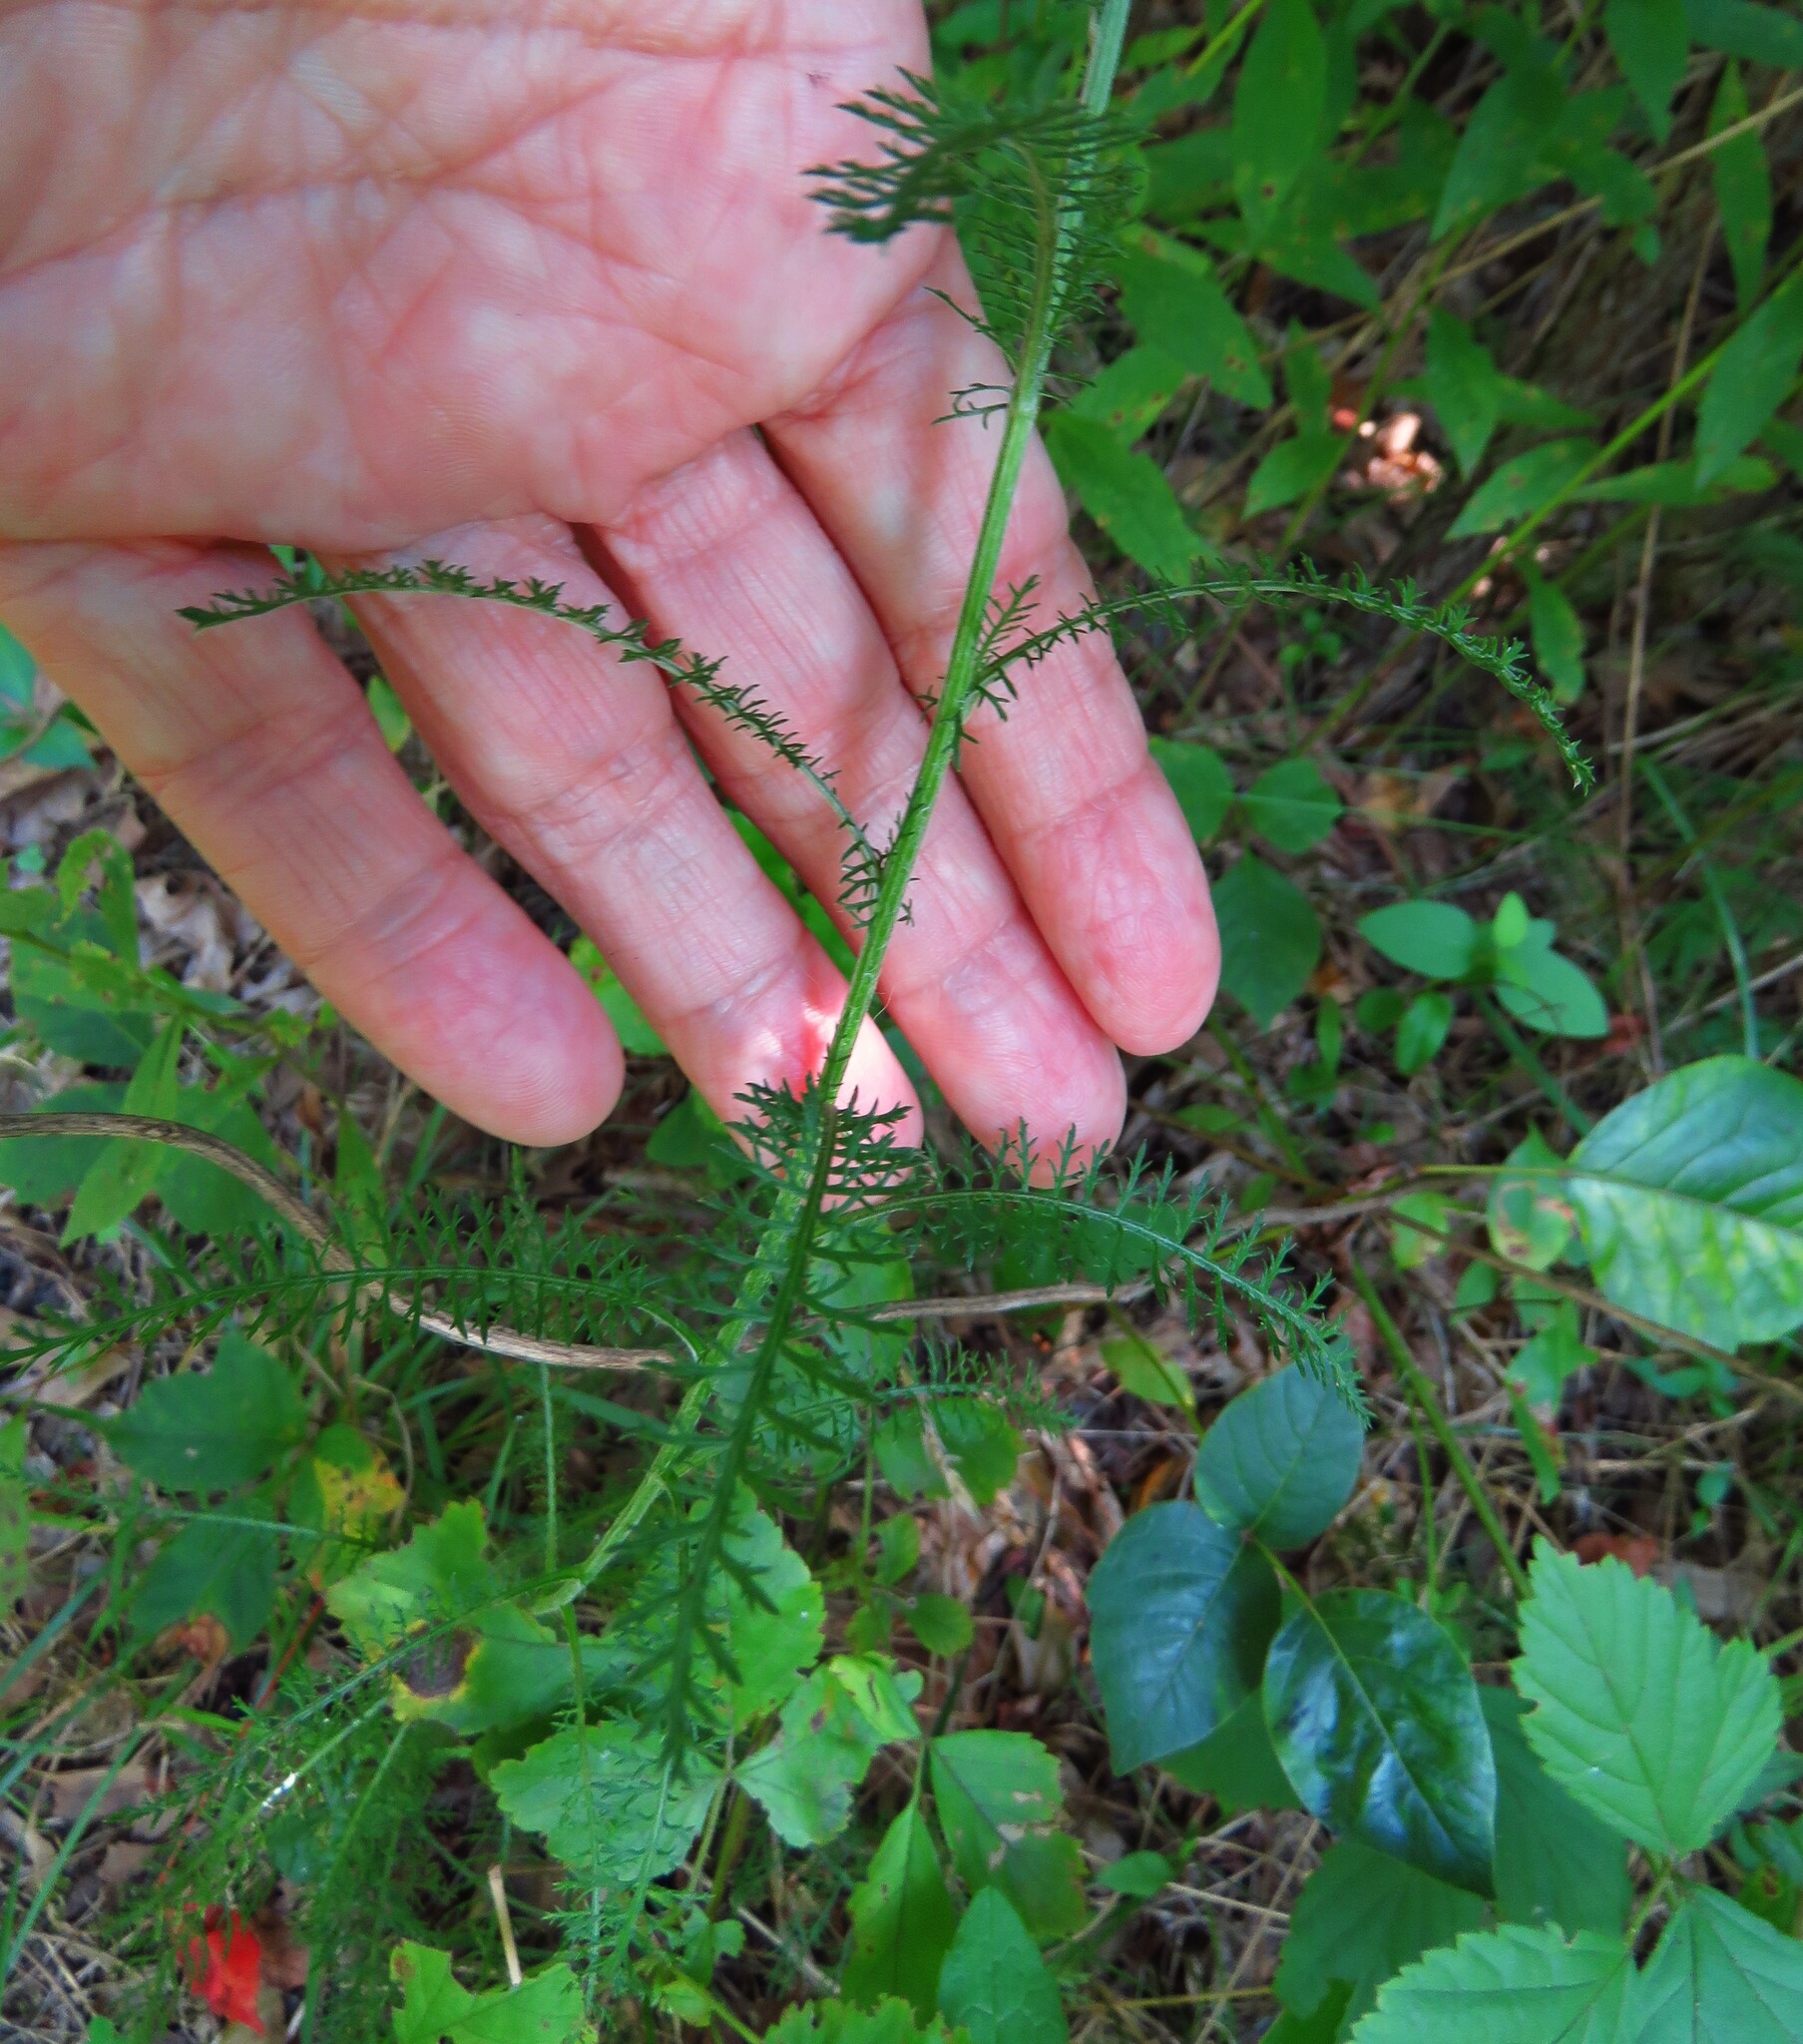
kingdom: Plantae
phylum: Tracheophyta
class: Magnoliopsida
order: Asterales
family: Asteraceae
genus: Achillea
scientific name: Achillea millefolium
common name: Yarrow
